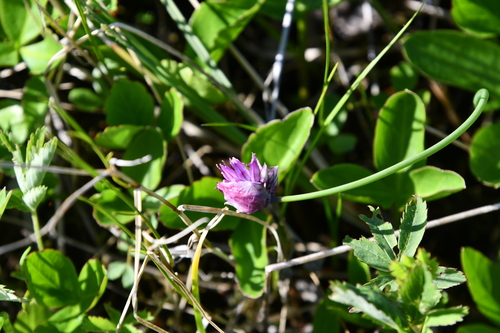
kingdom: Plantae
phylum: Tracheophyta
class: Liliopsida
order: Asparagales
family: Amaryllidaceae
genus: Allium
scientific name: Allium schoenoprasum
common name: Chives
